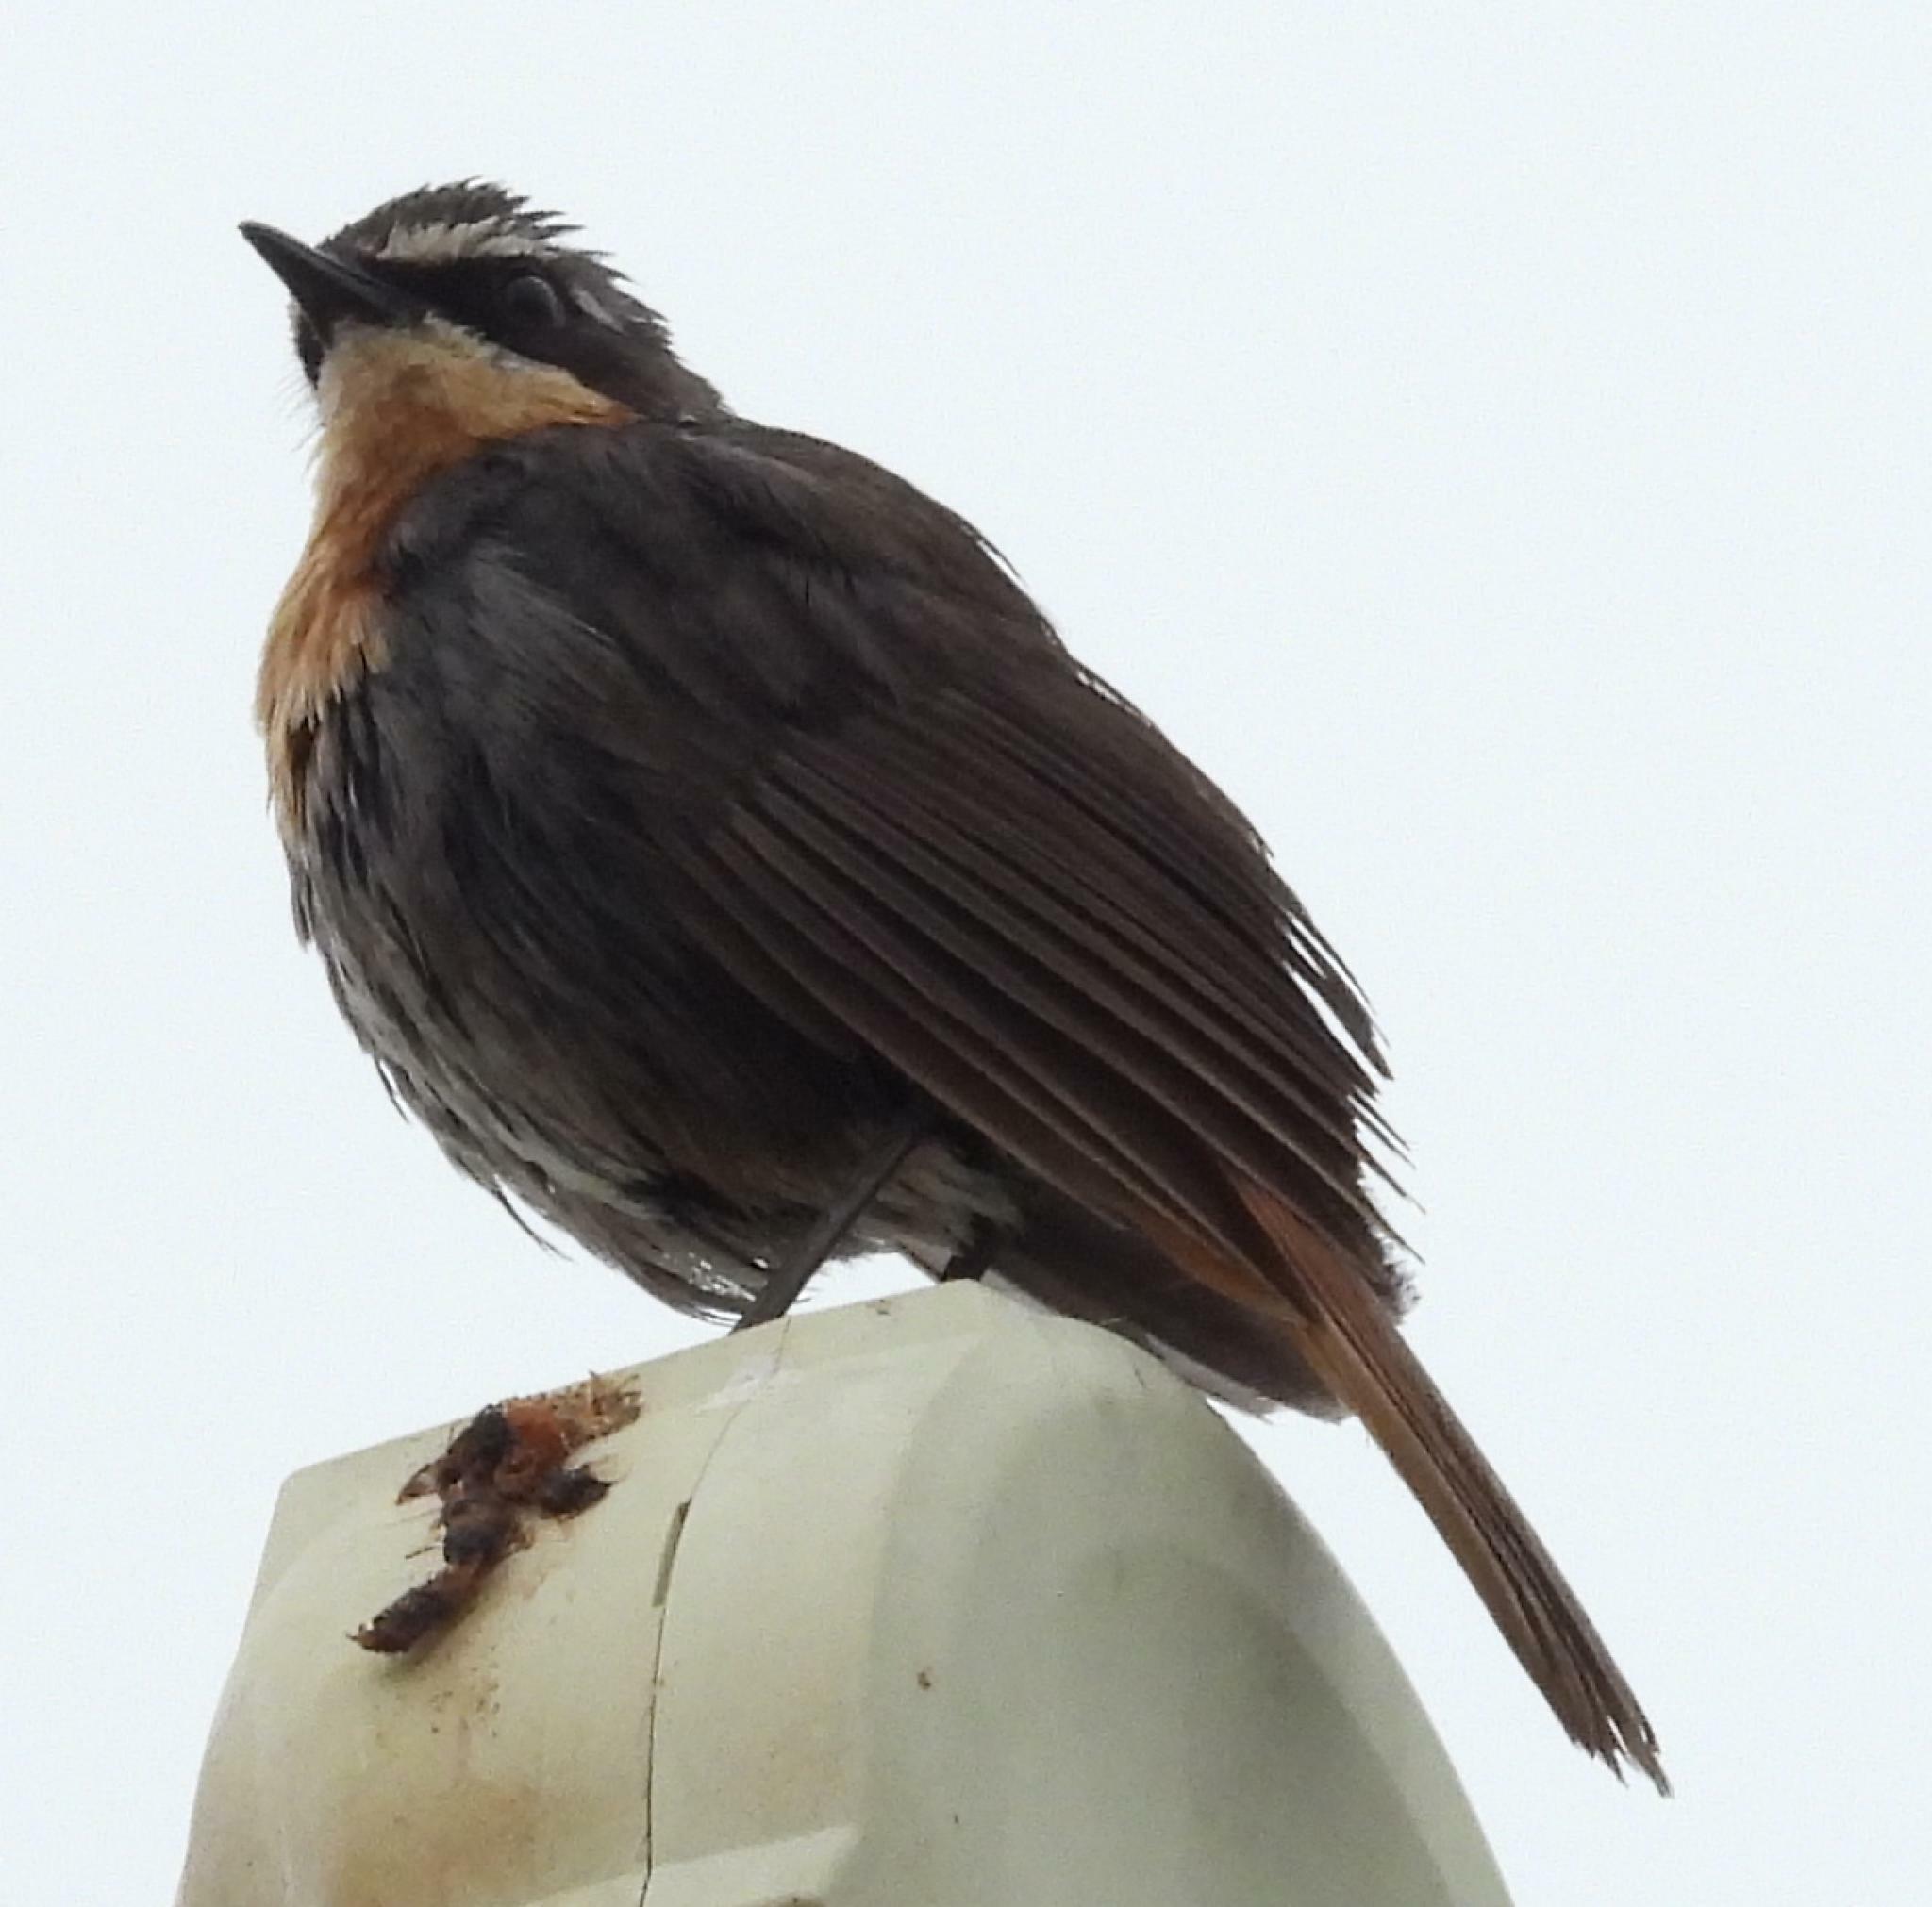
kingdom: Animalia
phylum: Chordata
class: Aves
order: Passeriformes
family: Muscicapidae
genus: Cossypha
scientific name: Cossypha caffra
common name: Cape robin-chat
